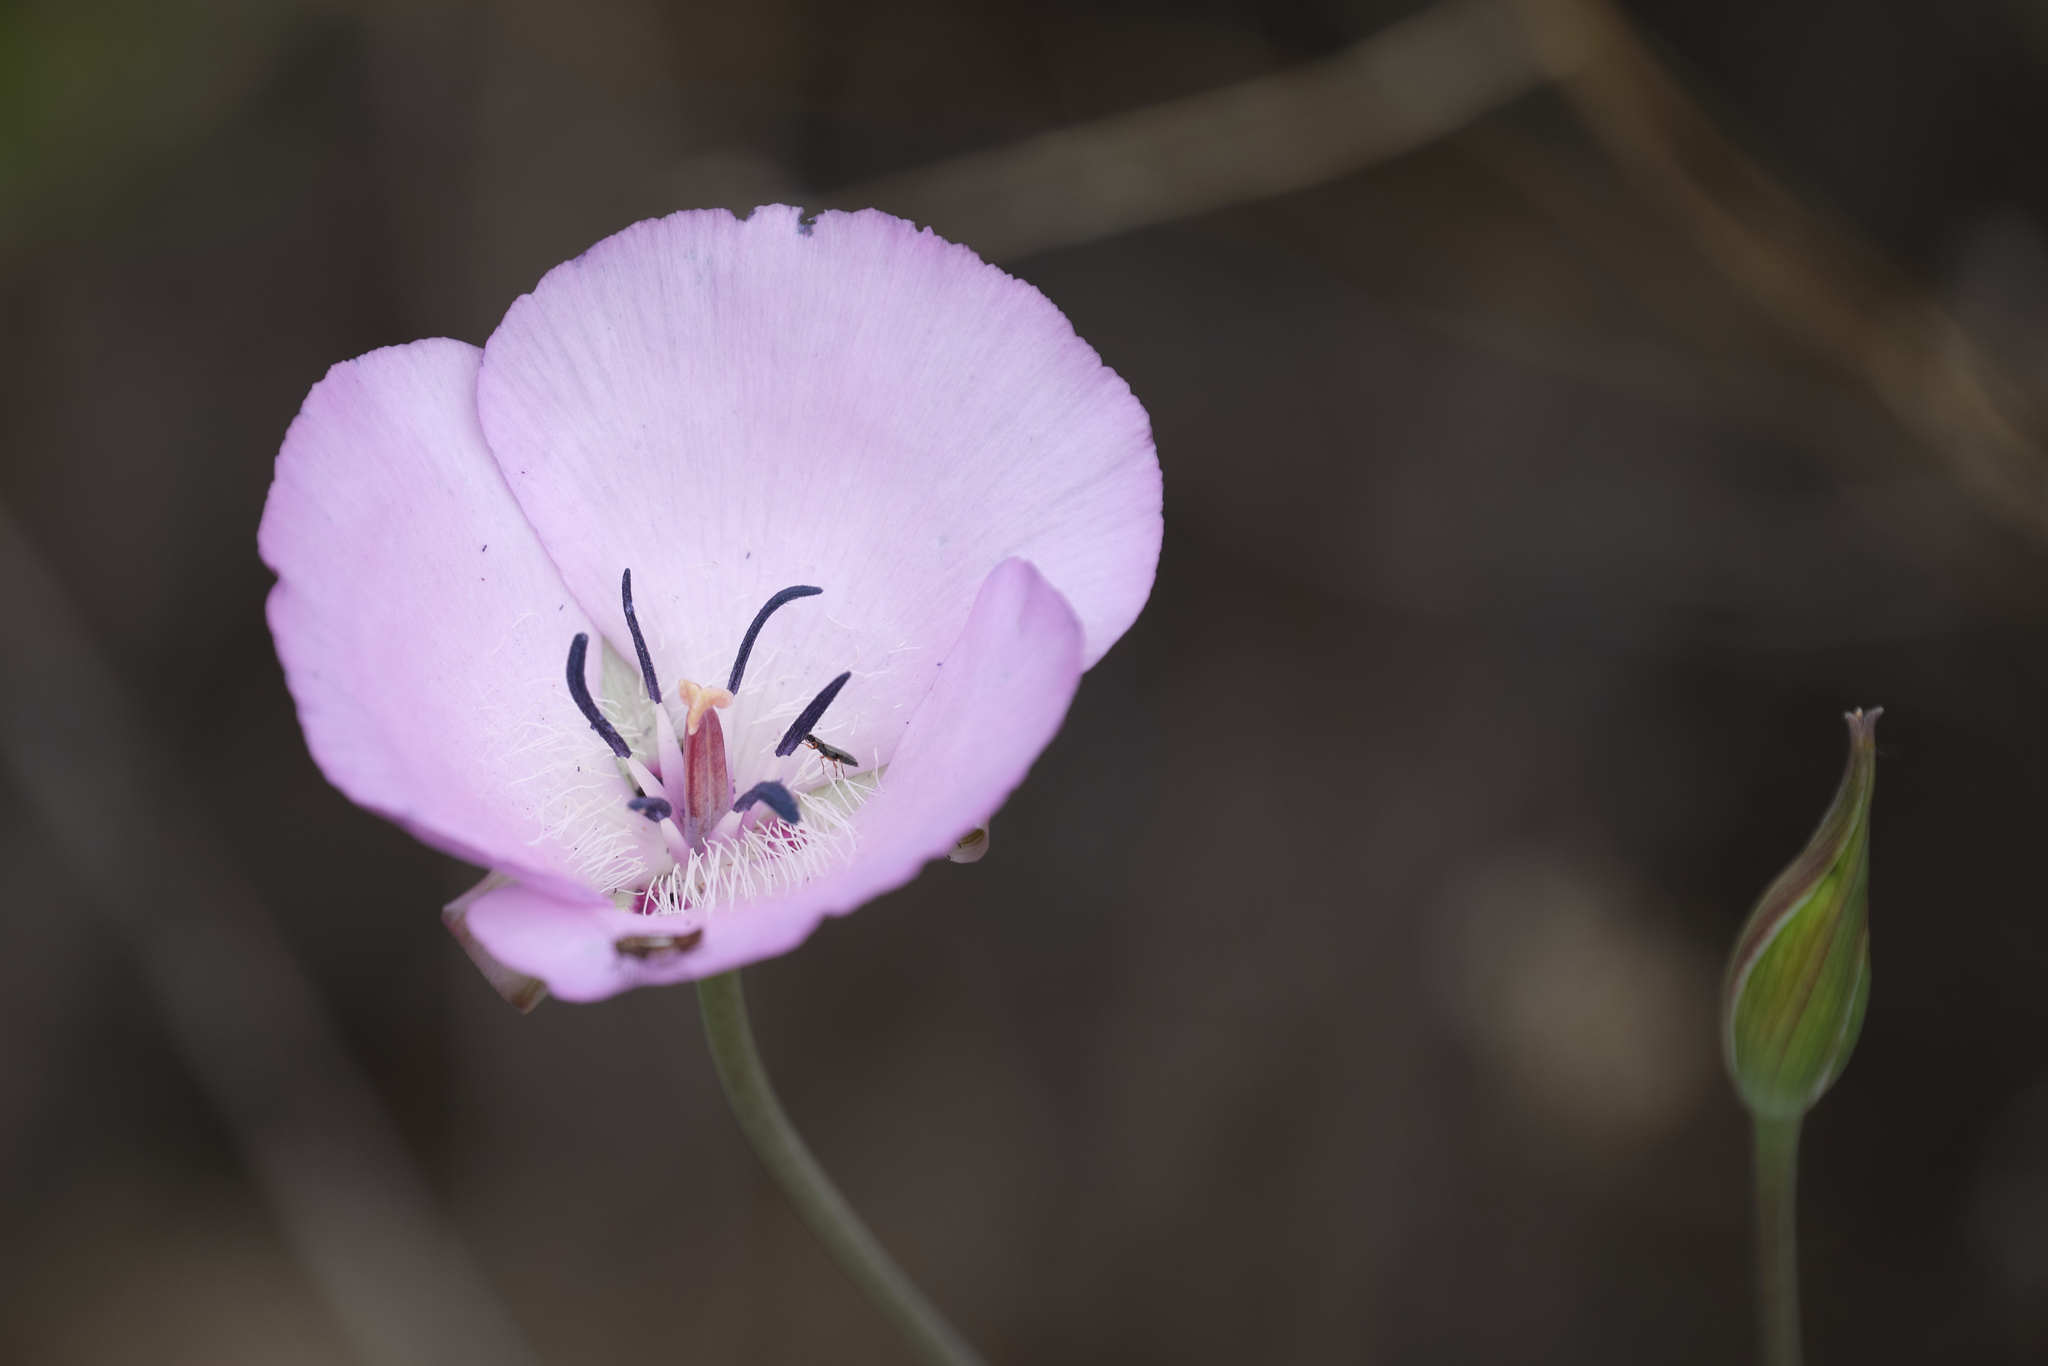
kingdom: Plantae
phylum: Tracheophyta
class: Liliopsida
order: Liliales
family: Liliaceae
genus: Calochortus
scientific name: Calochortus splendens
